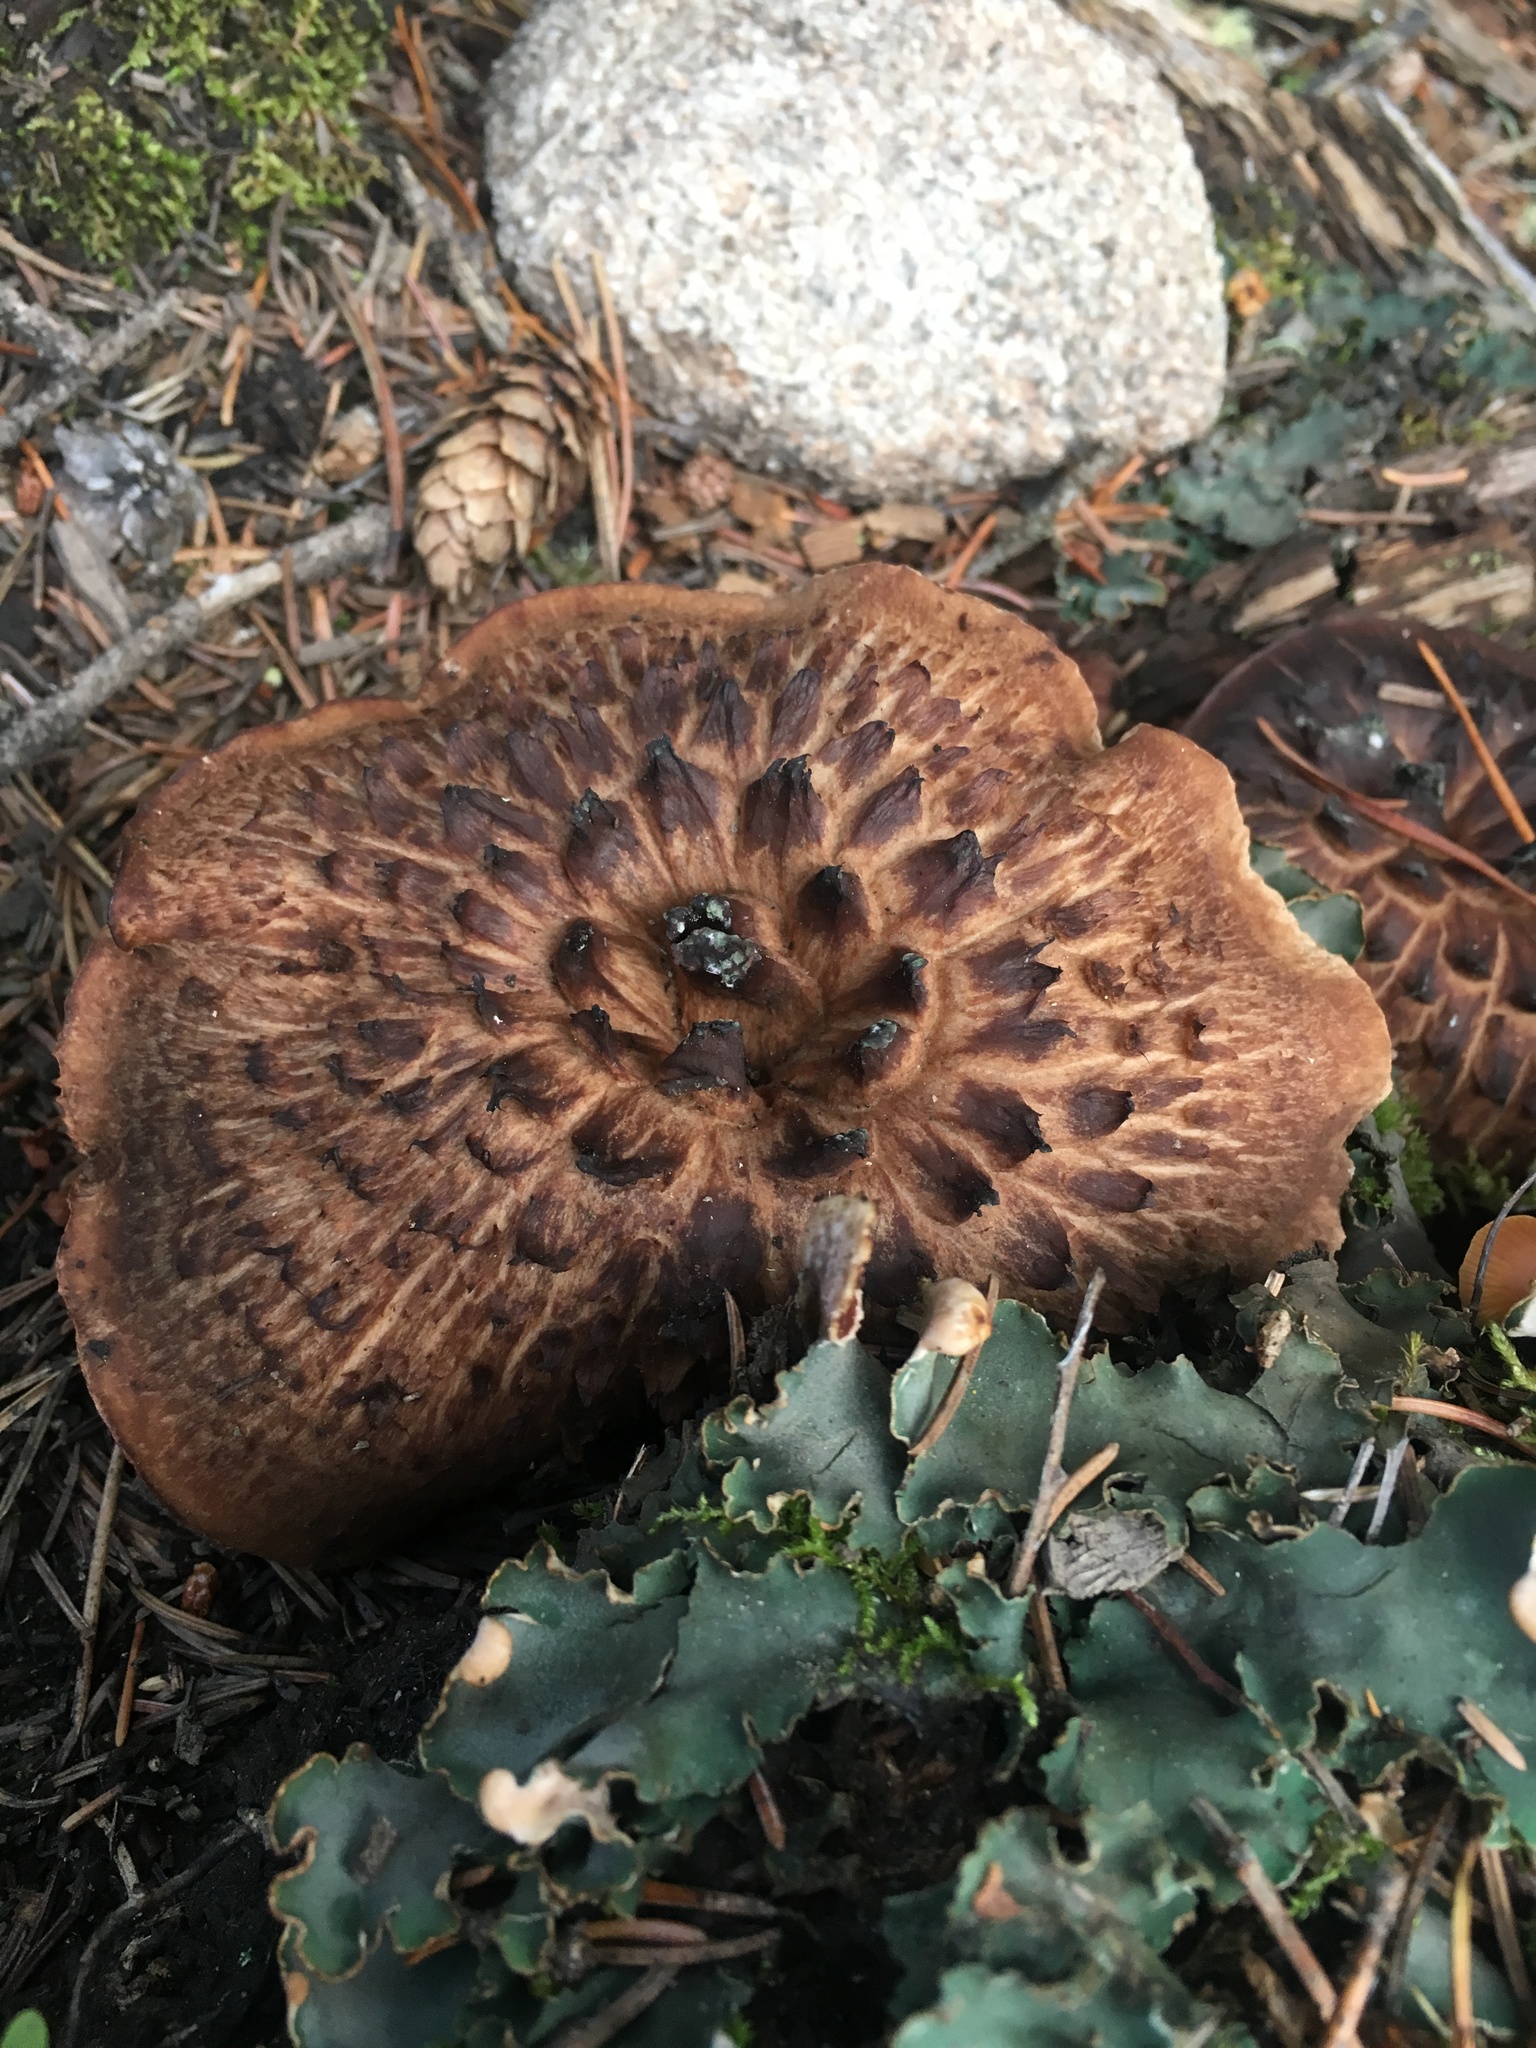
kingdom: Fungi
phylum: Basidiomycota
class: Agaricomycetes
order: Thelephorales
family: Bankeraceae
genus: Sarcodon
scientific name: Sarcodon imbricatus
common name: Shingled hedgehog
